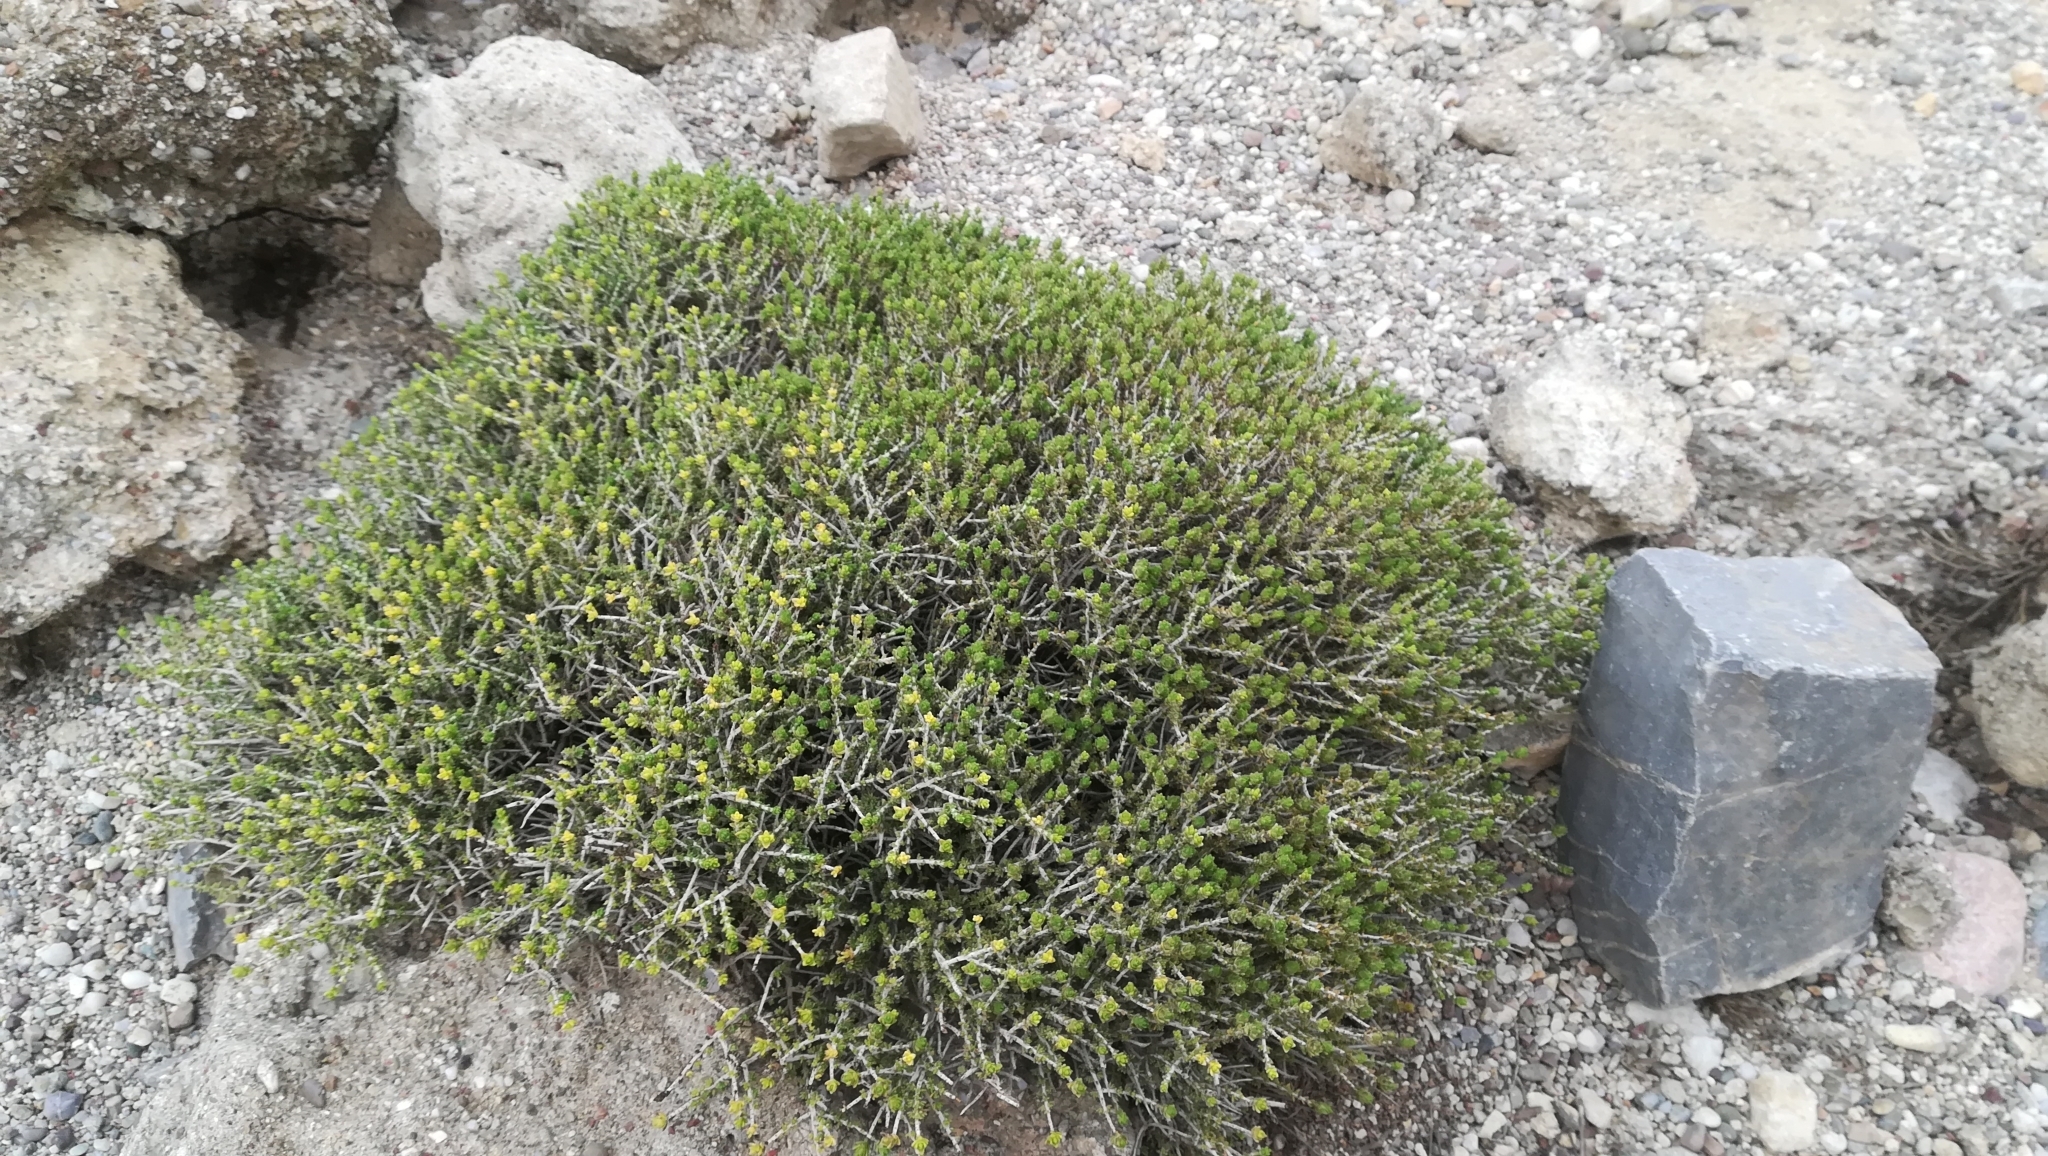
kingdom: Plantae
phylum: Tracheophyta
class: Magnoliopsida
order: Lamiales
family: Lamiaceae
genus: Thymbra
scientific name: Thymbra capitata
